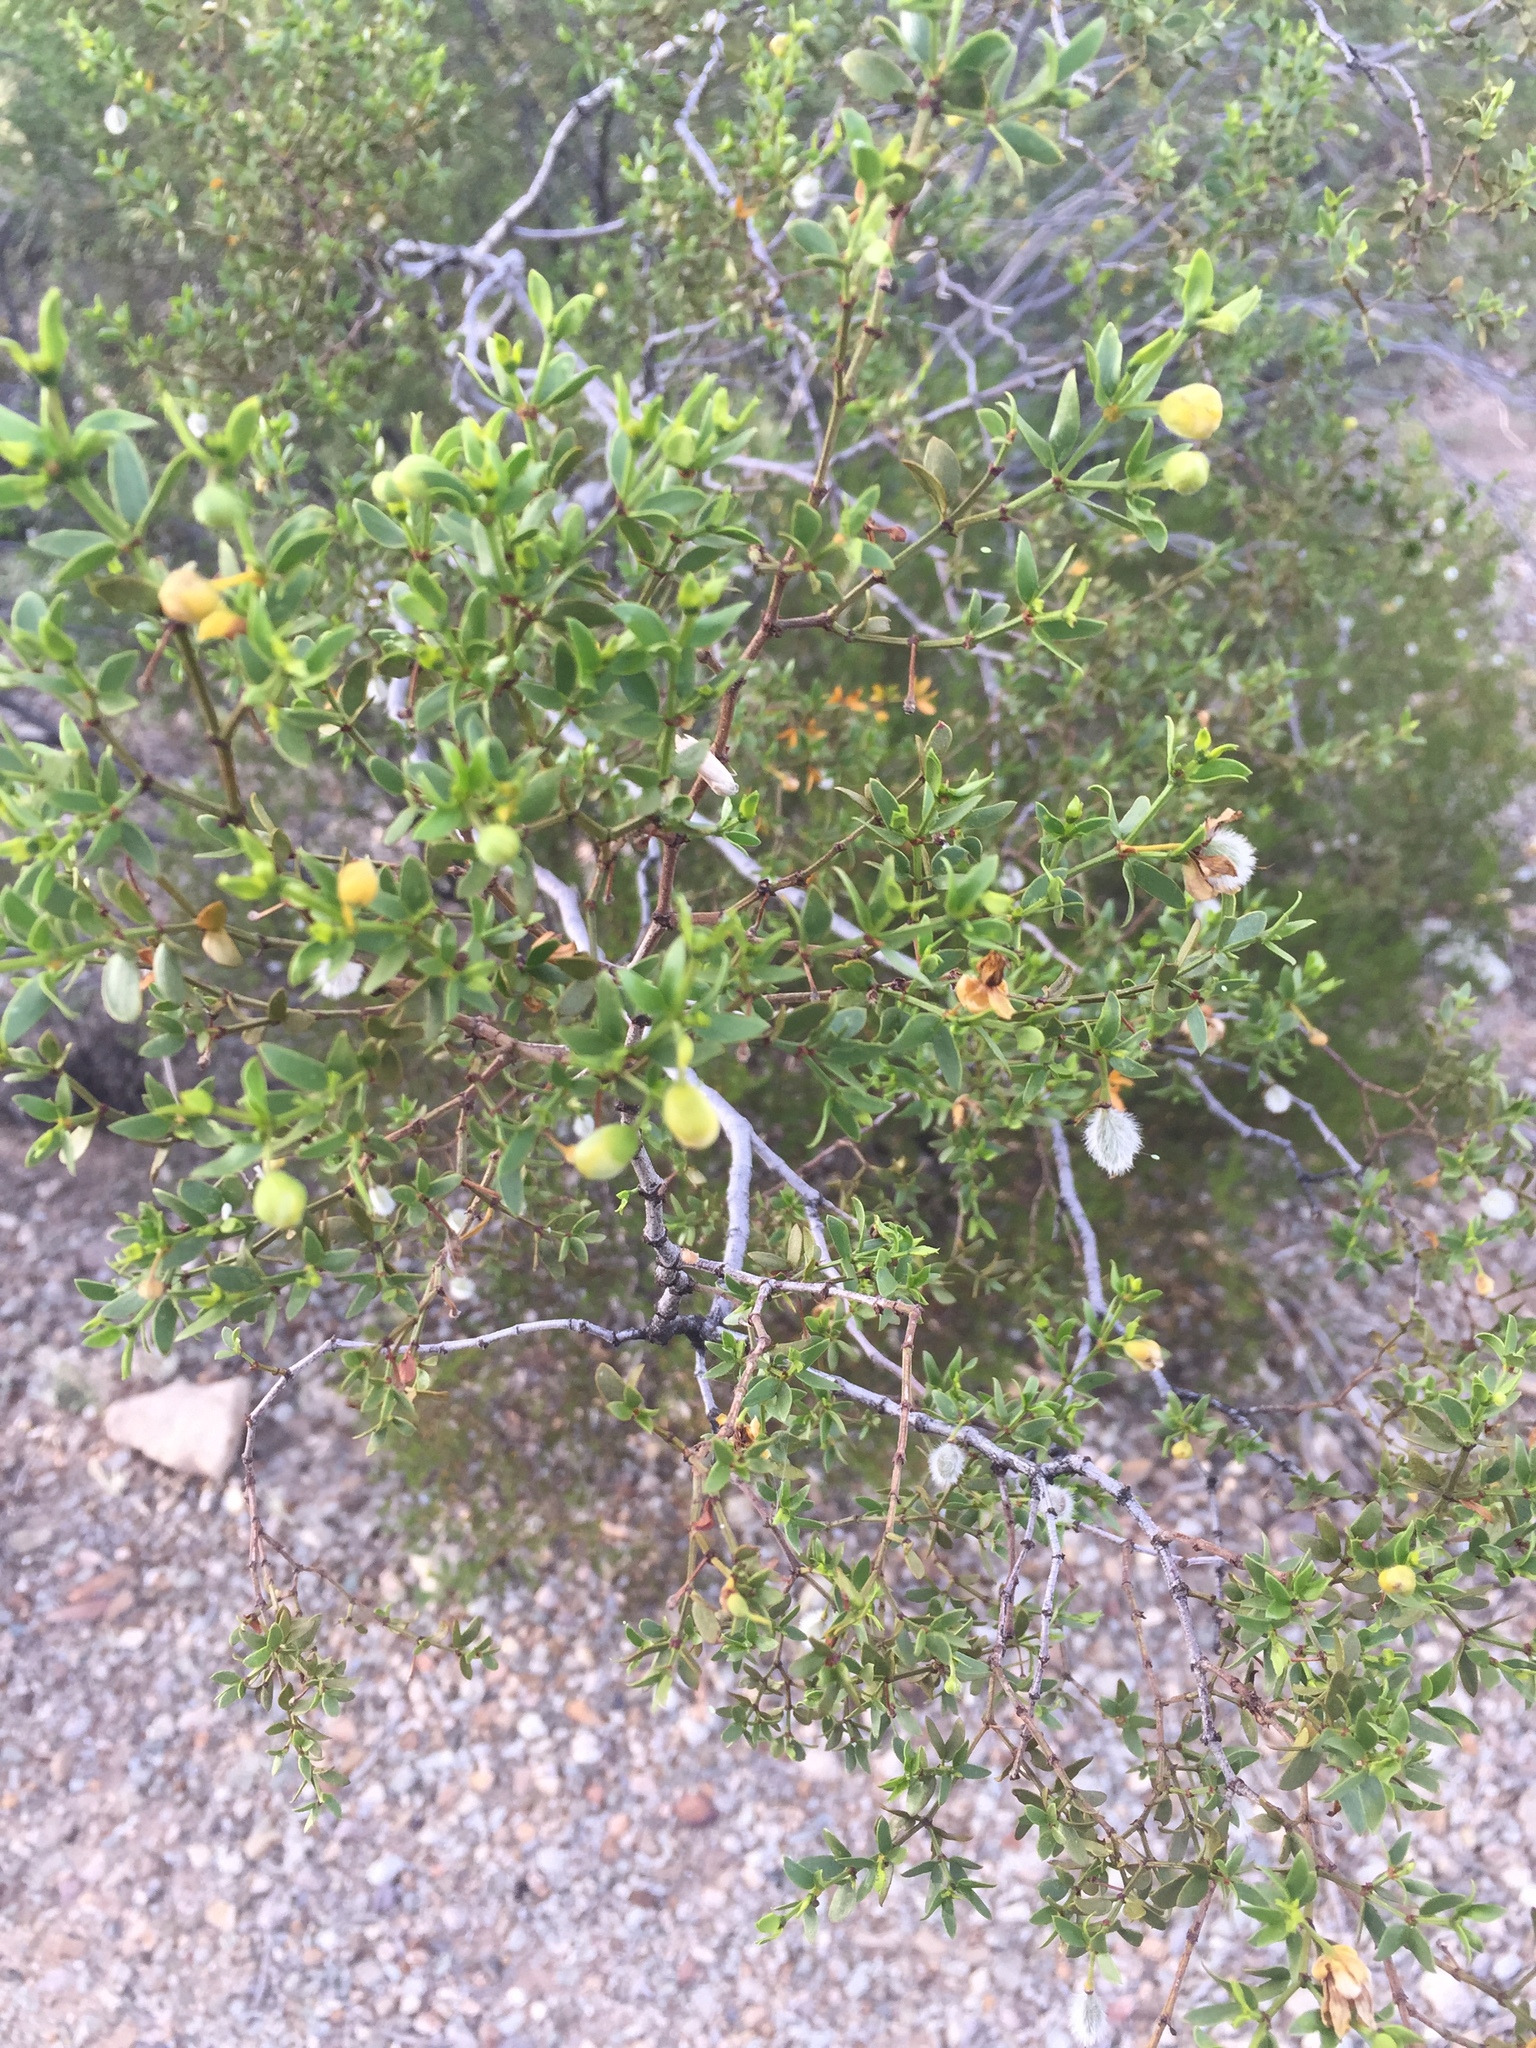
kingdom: Plantae
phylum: Tracheophyta
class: Magnoliopsida
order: Zygophyllales
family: Zygophyllaceae
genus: Larrea
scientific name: Larrea tridentata
